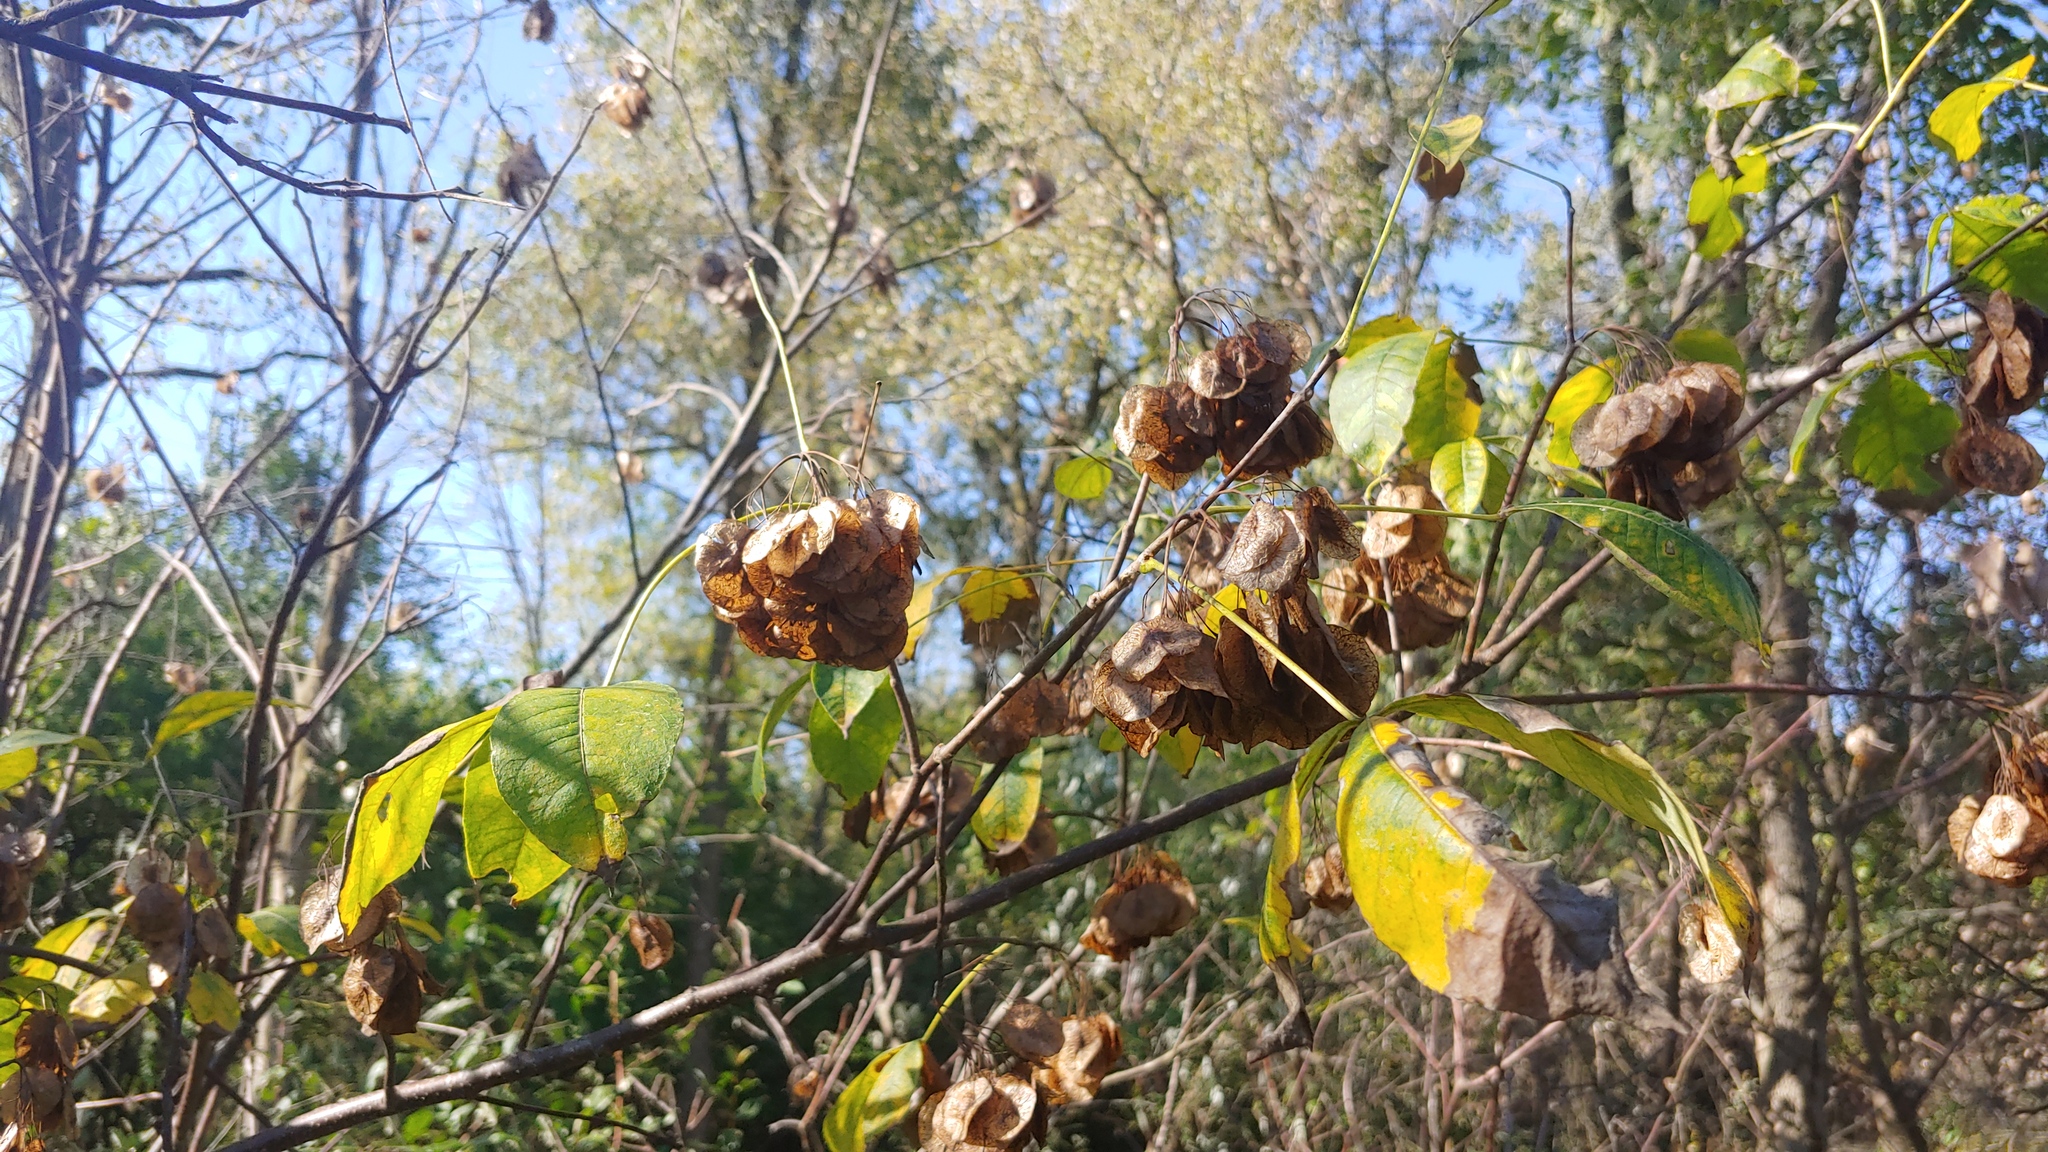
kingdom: Plantae
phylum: Tracheophyta
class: Magnoliopsida
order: Sapindales
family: Rutaceae
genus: Ptelea
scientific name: Ptelea trifoliata
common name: Common hop-tree
